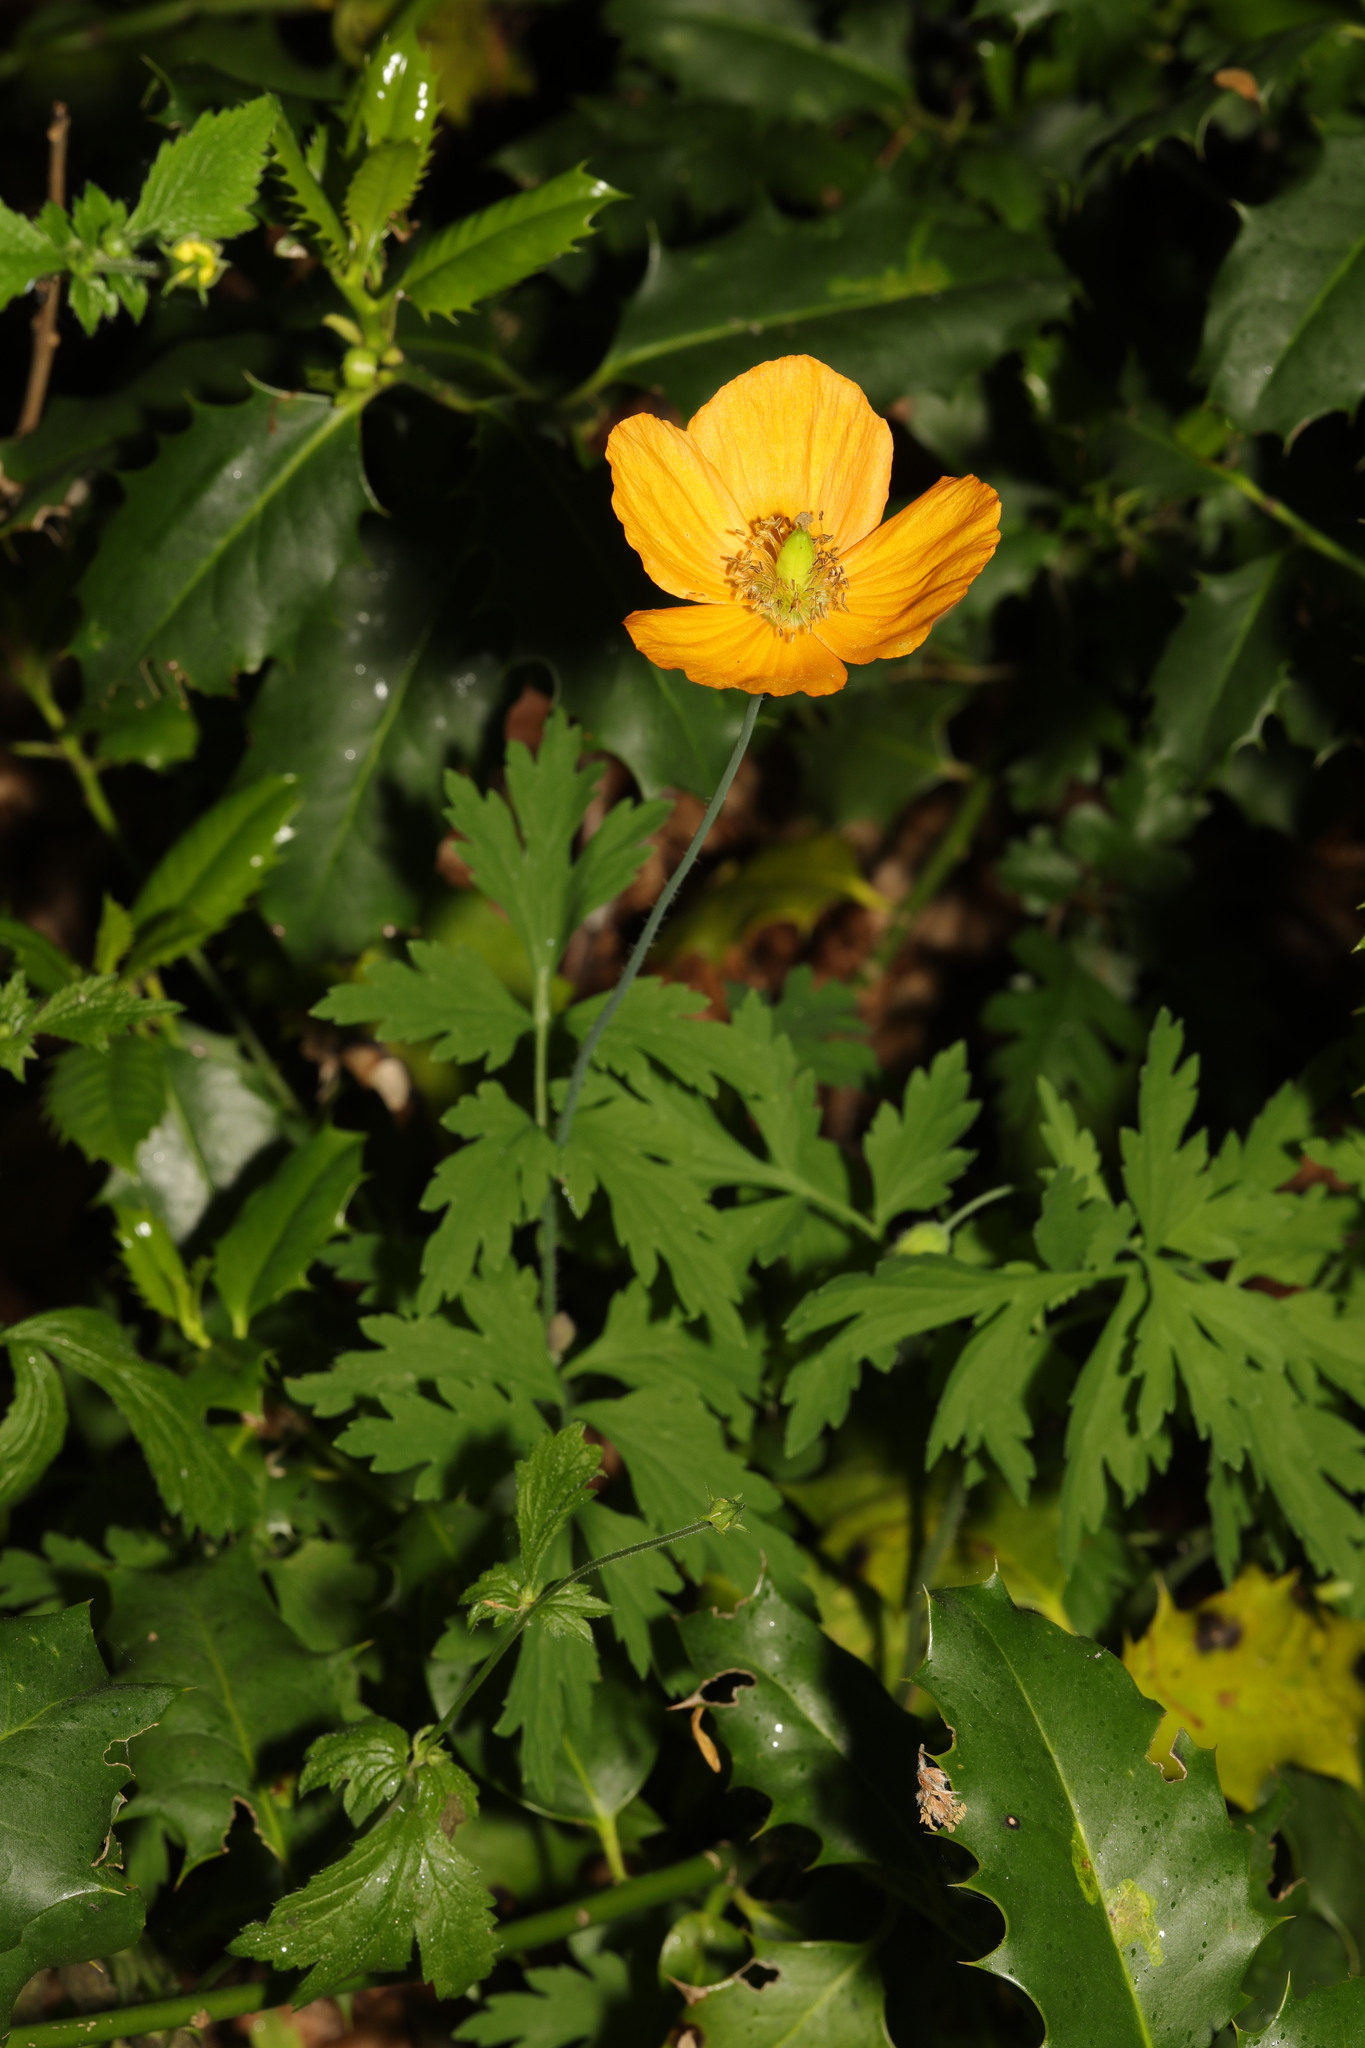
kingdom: Plantae
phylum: Tracheophyta
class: Magnoliopsida
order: Ranunculales
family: Papaveraceae
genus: Papaver
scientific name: Papaver cambricum
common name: Poppy
